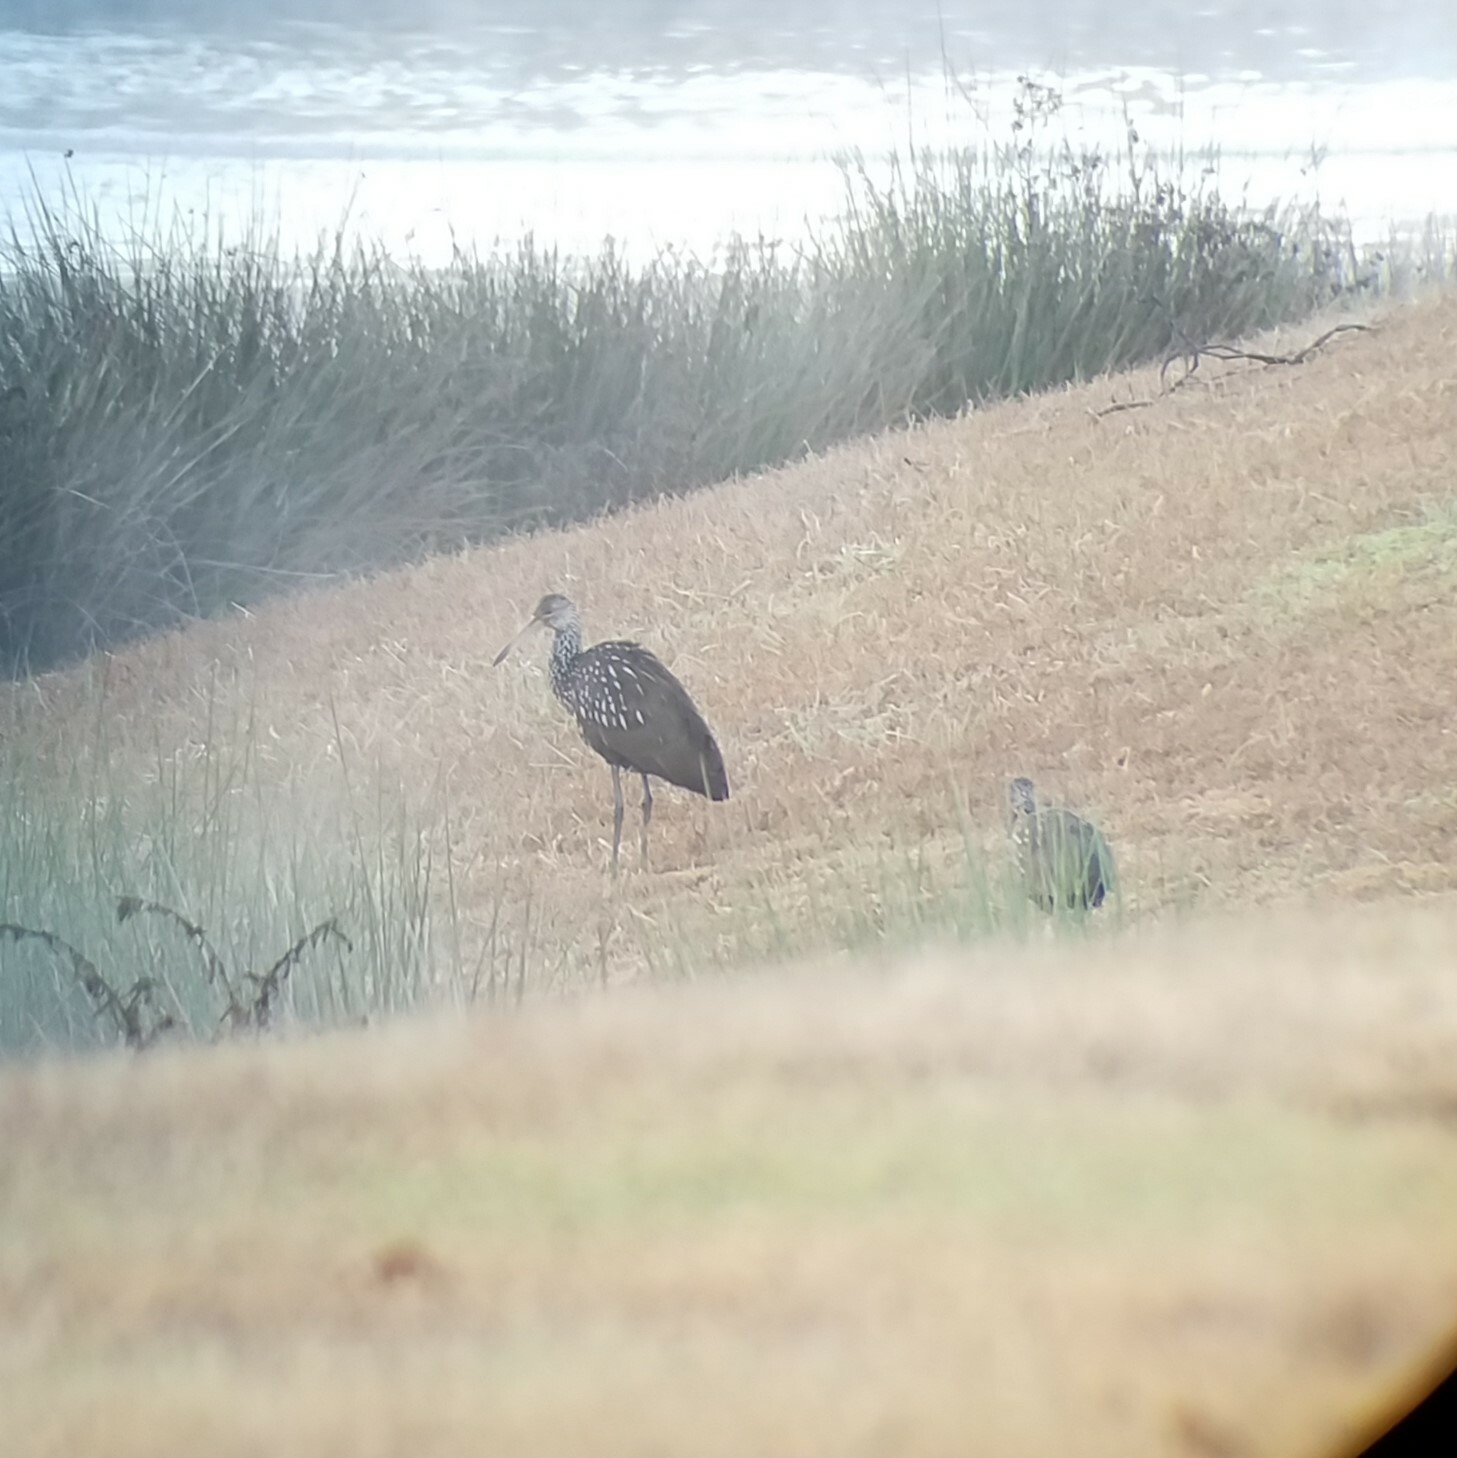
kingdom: Animalia
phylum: Chordata
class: Aves
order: Gruiformes
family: Aramidae
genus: Aramus
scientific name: Aramus guarauna
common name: Limpkin
